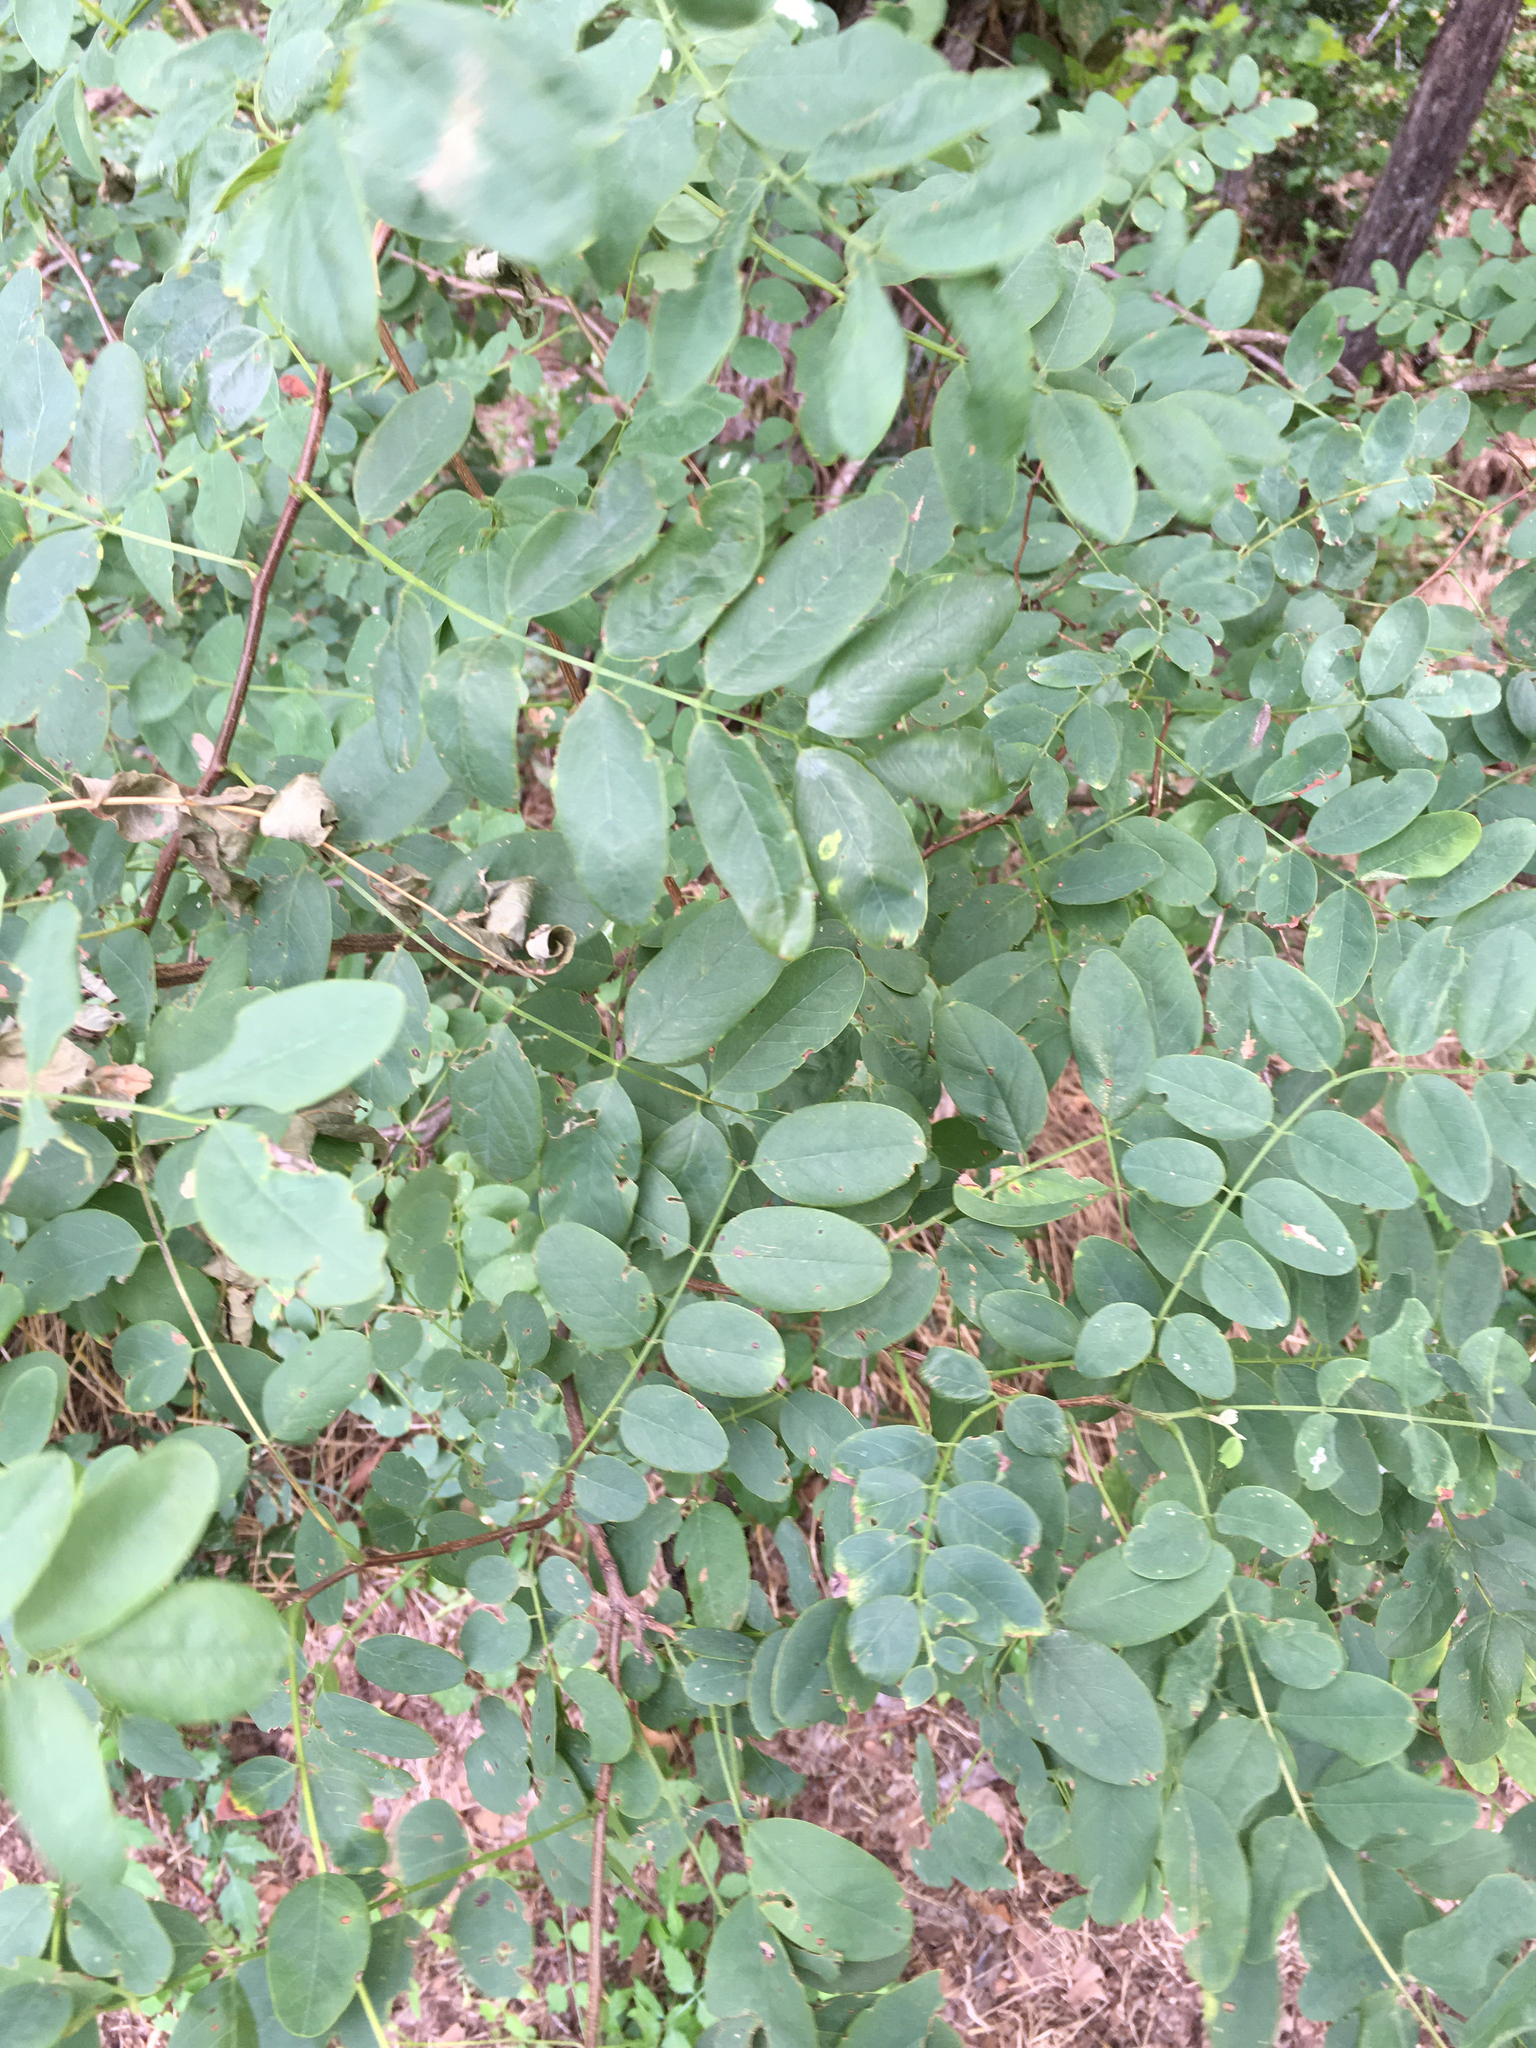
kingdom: Plantae
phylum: Tracheophyta
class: Magnoliopsida
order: Fabales
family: Fabaceae
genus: Robinia
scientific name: Robinia pseudoacacia
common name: Black locust
